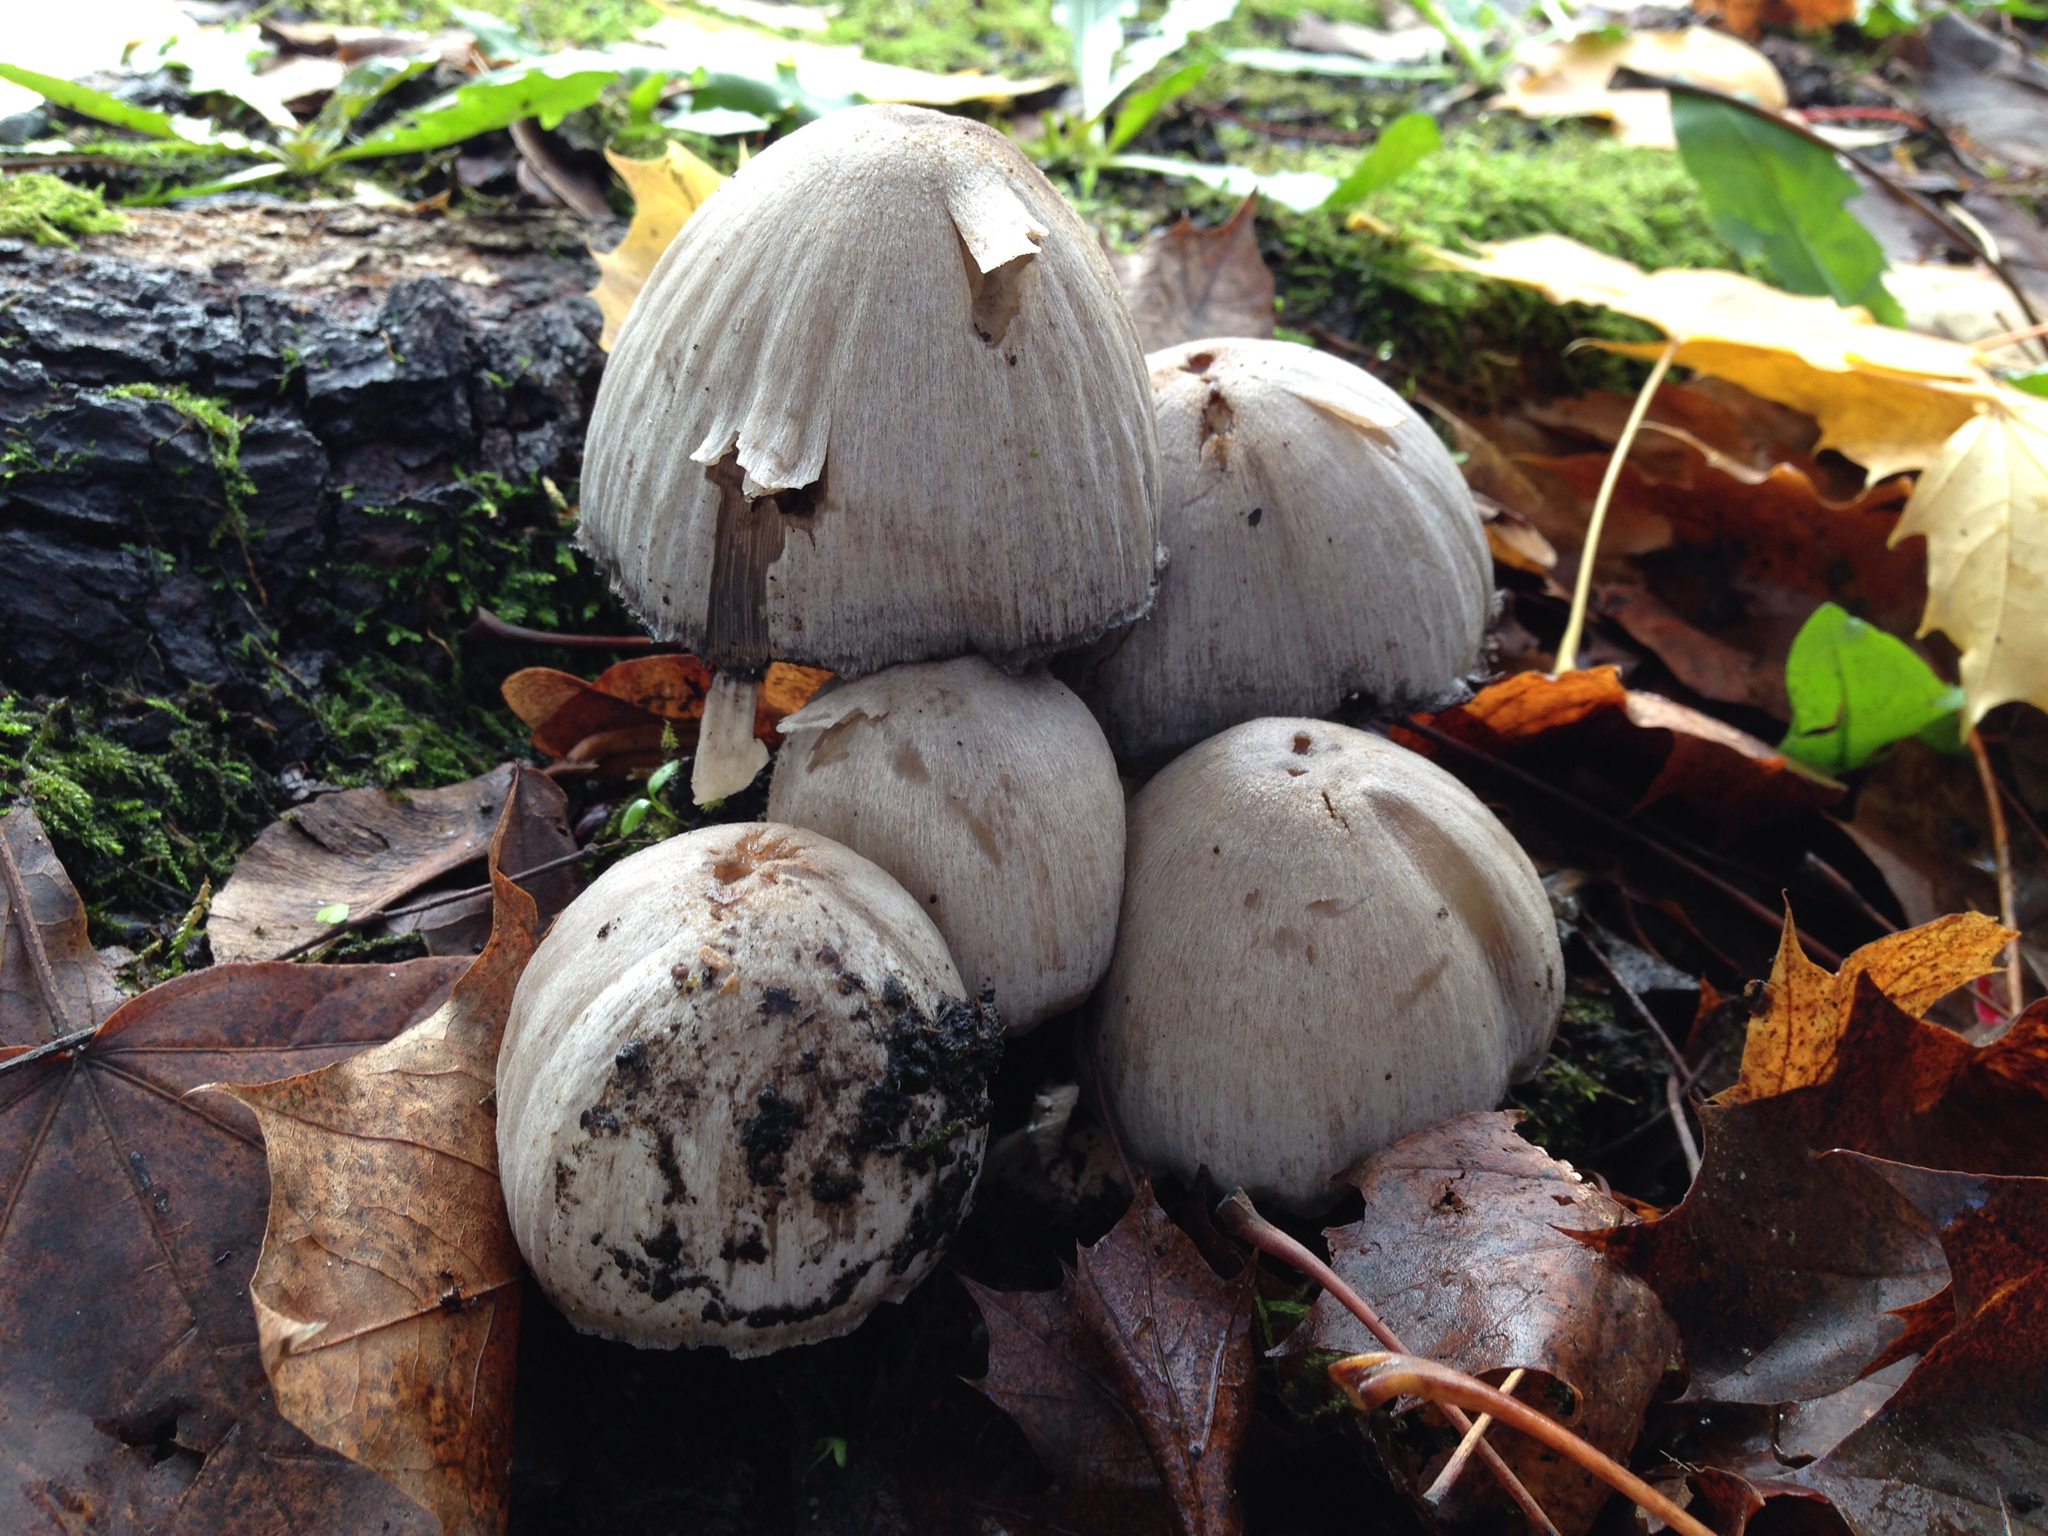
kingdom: Fungi
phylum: Basidiomycota
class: Agaricomycetes
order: Agaricales
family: Psathyrellaceae
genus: Coprinopsis
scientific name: Coprinopsis atramentaria
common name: Common ink-cap
